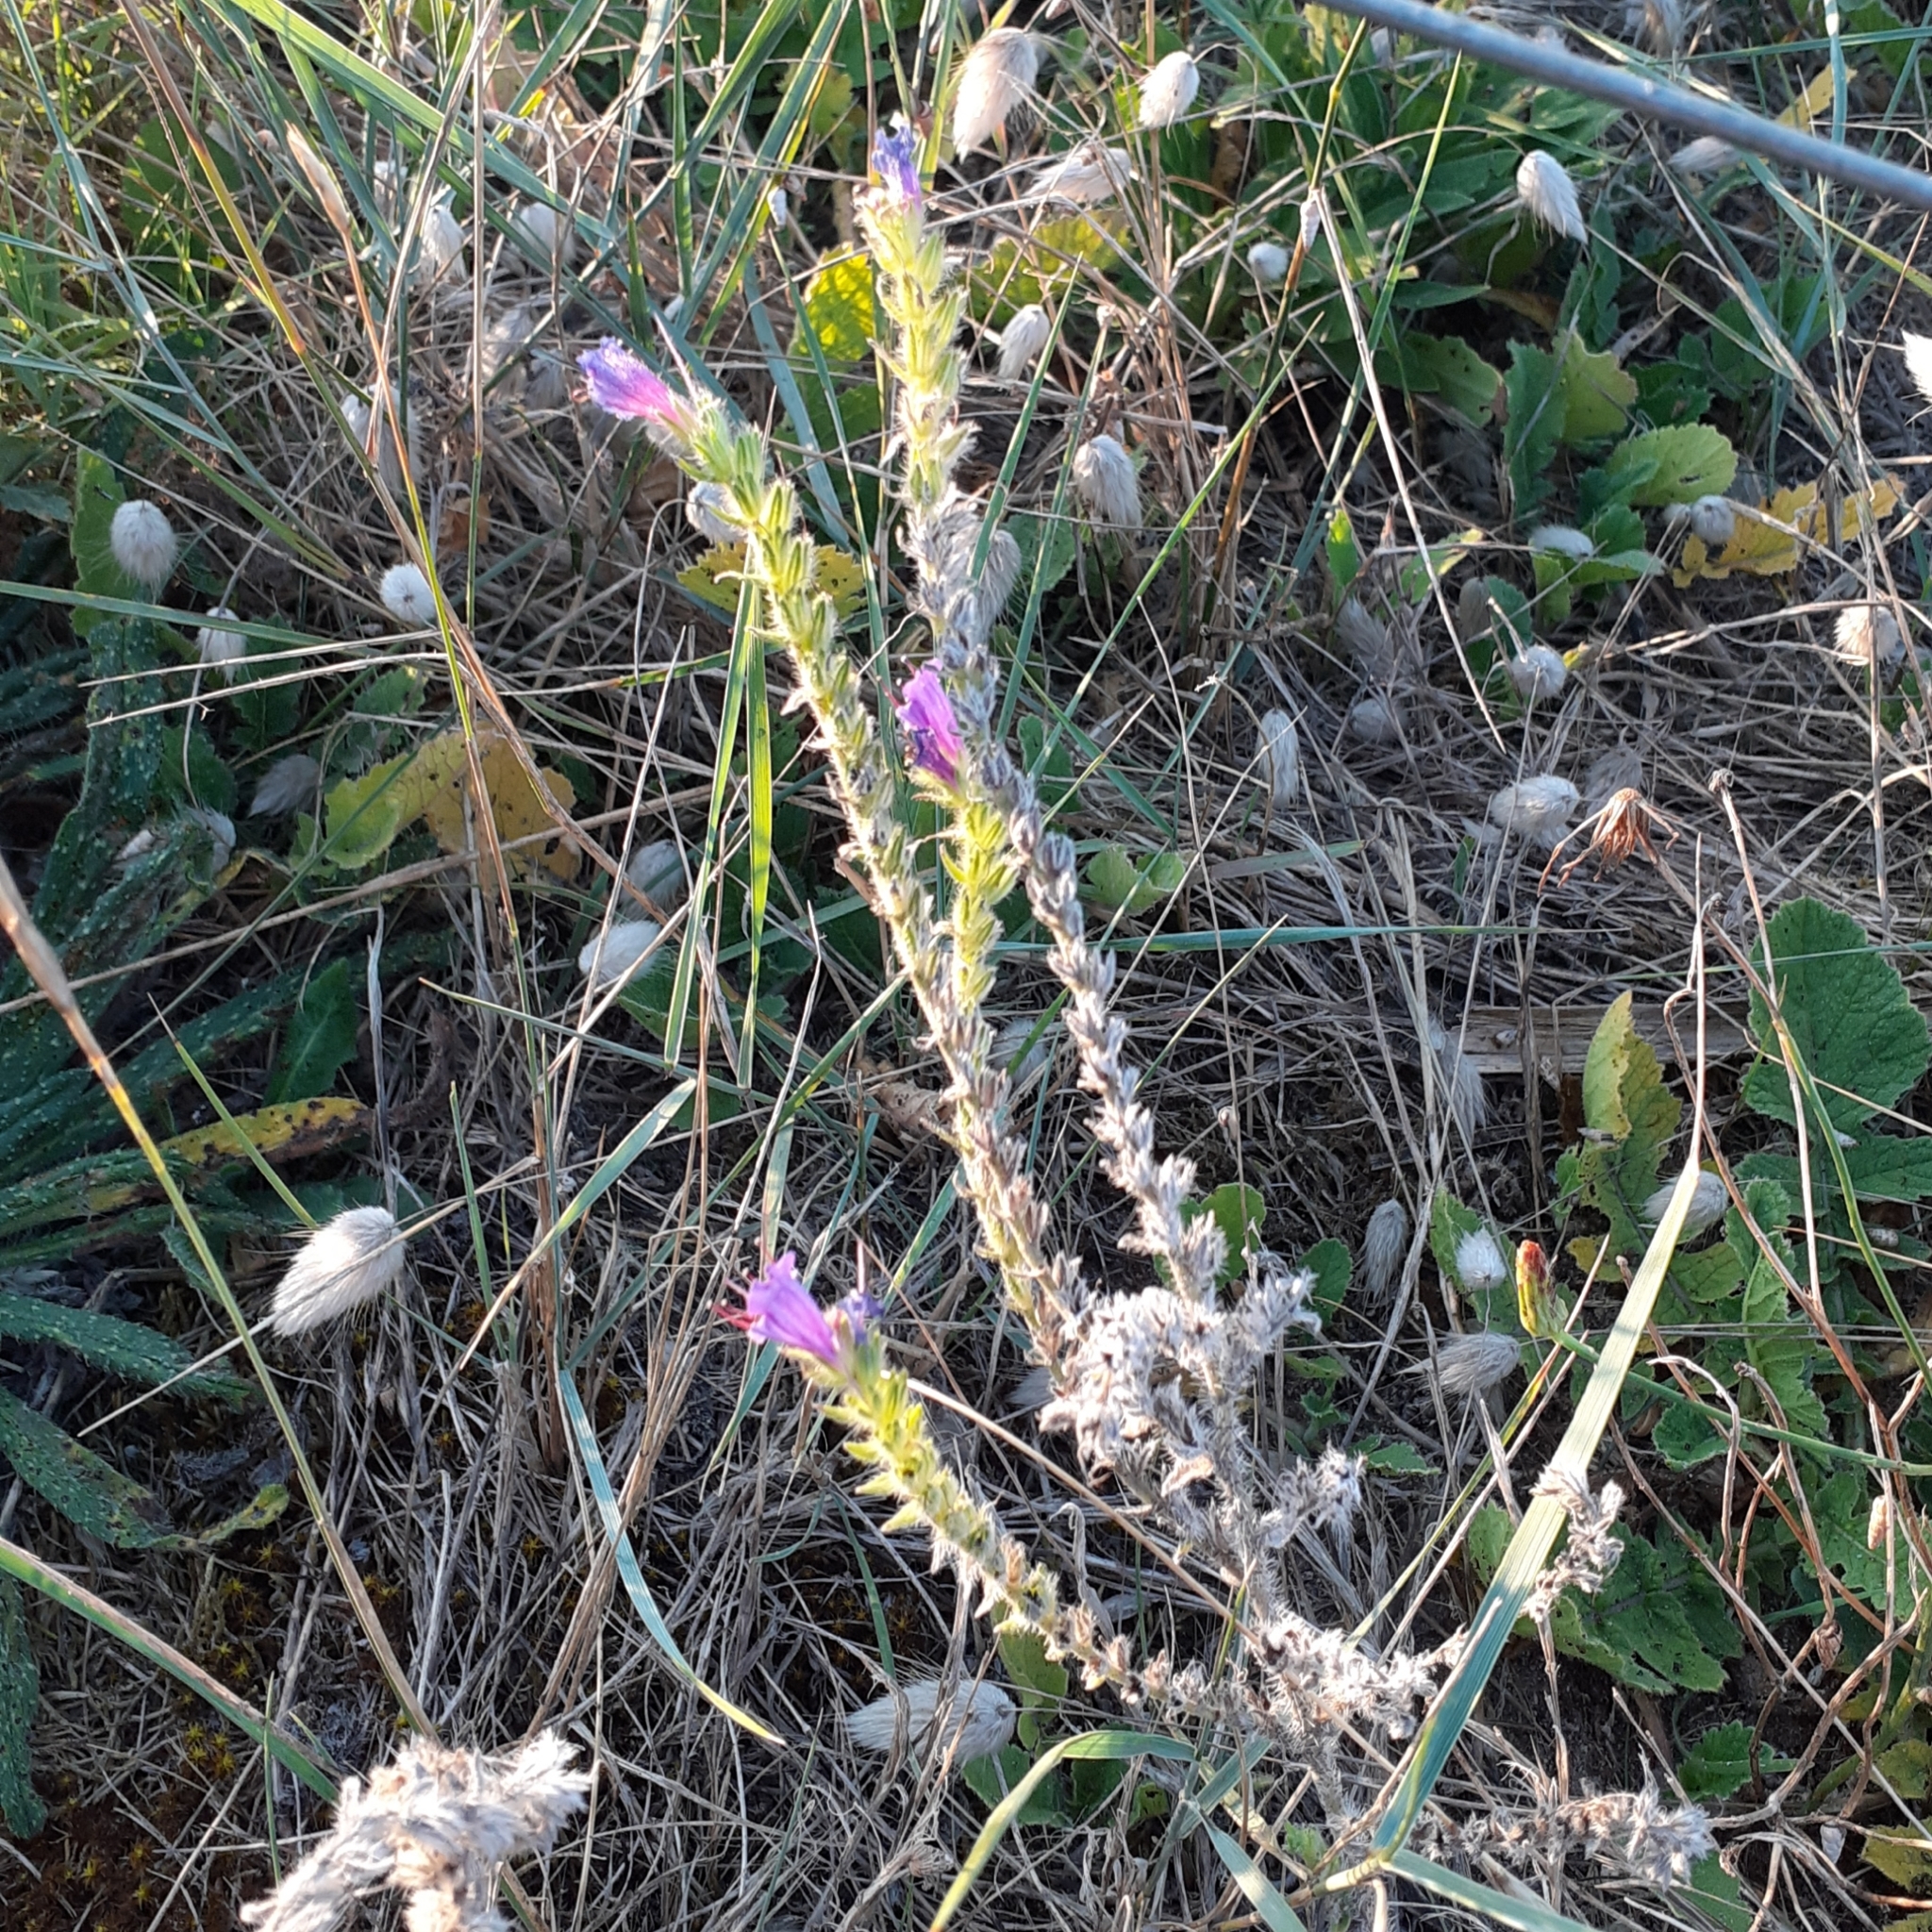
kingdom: Plantae
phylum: Tracheophyta
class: Magnoliopsida
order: Boraginales
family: Boraginaceae
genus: Echium
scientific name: Echium vulgare
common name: Common viper's bugloss
